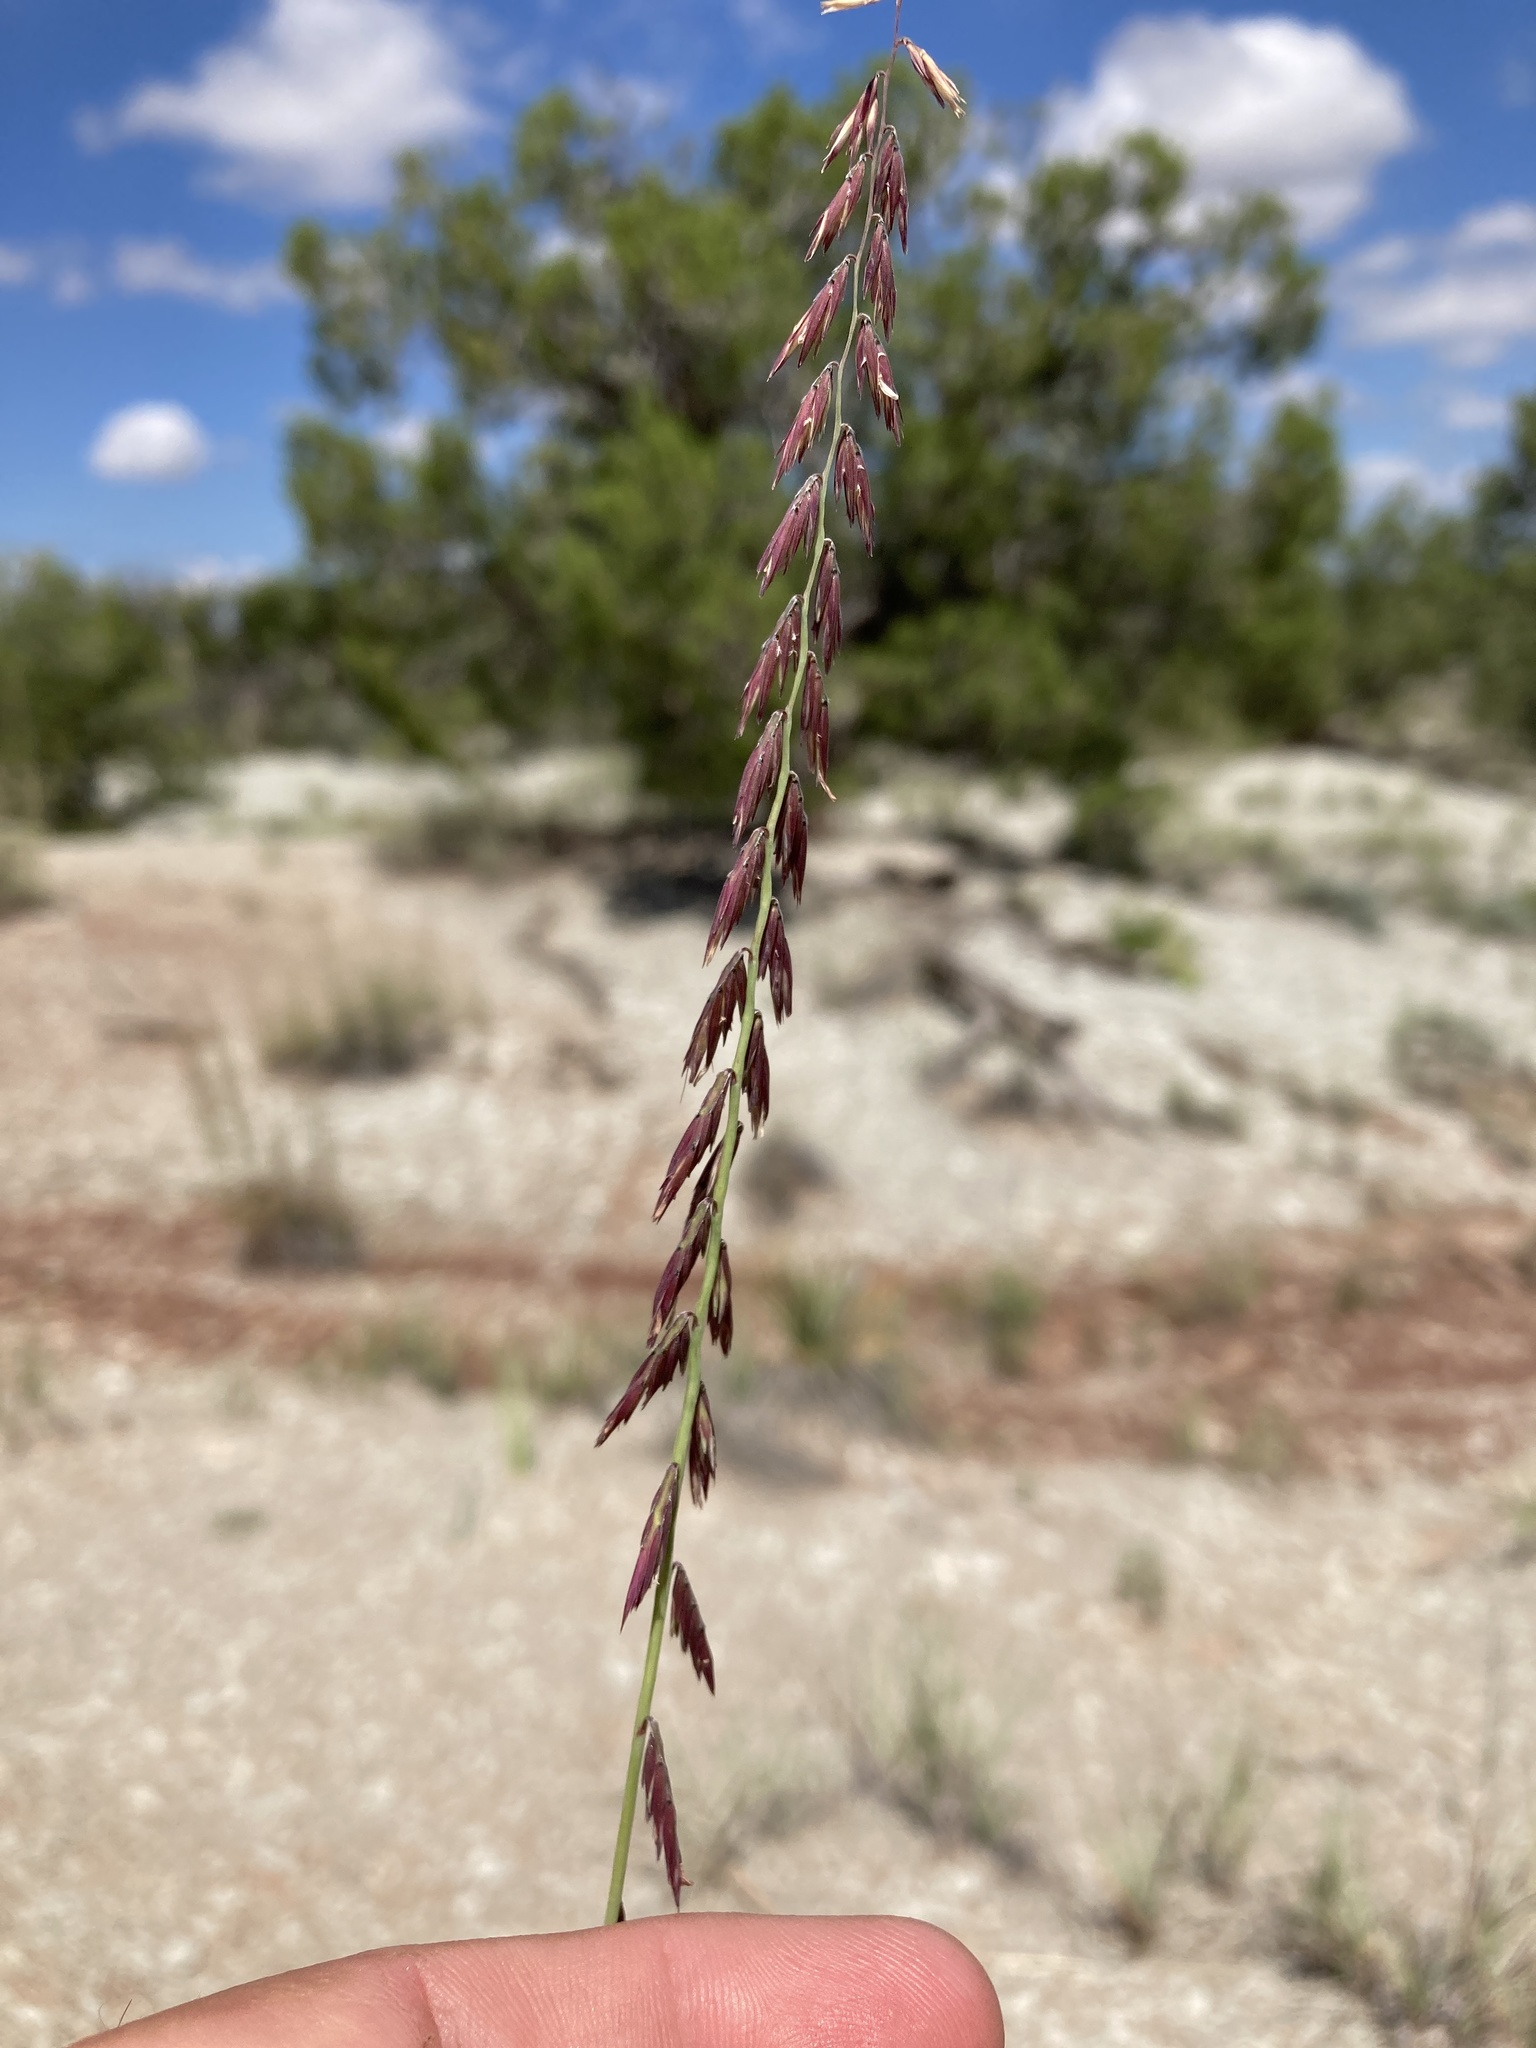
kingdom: Plantae
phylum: Tracheophyta
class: Liliopsida
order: Poales
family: Poaceae
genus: Bouteloua
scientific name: Bouteloua curtipendula
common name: Side-oats grama
